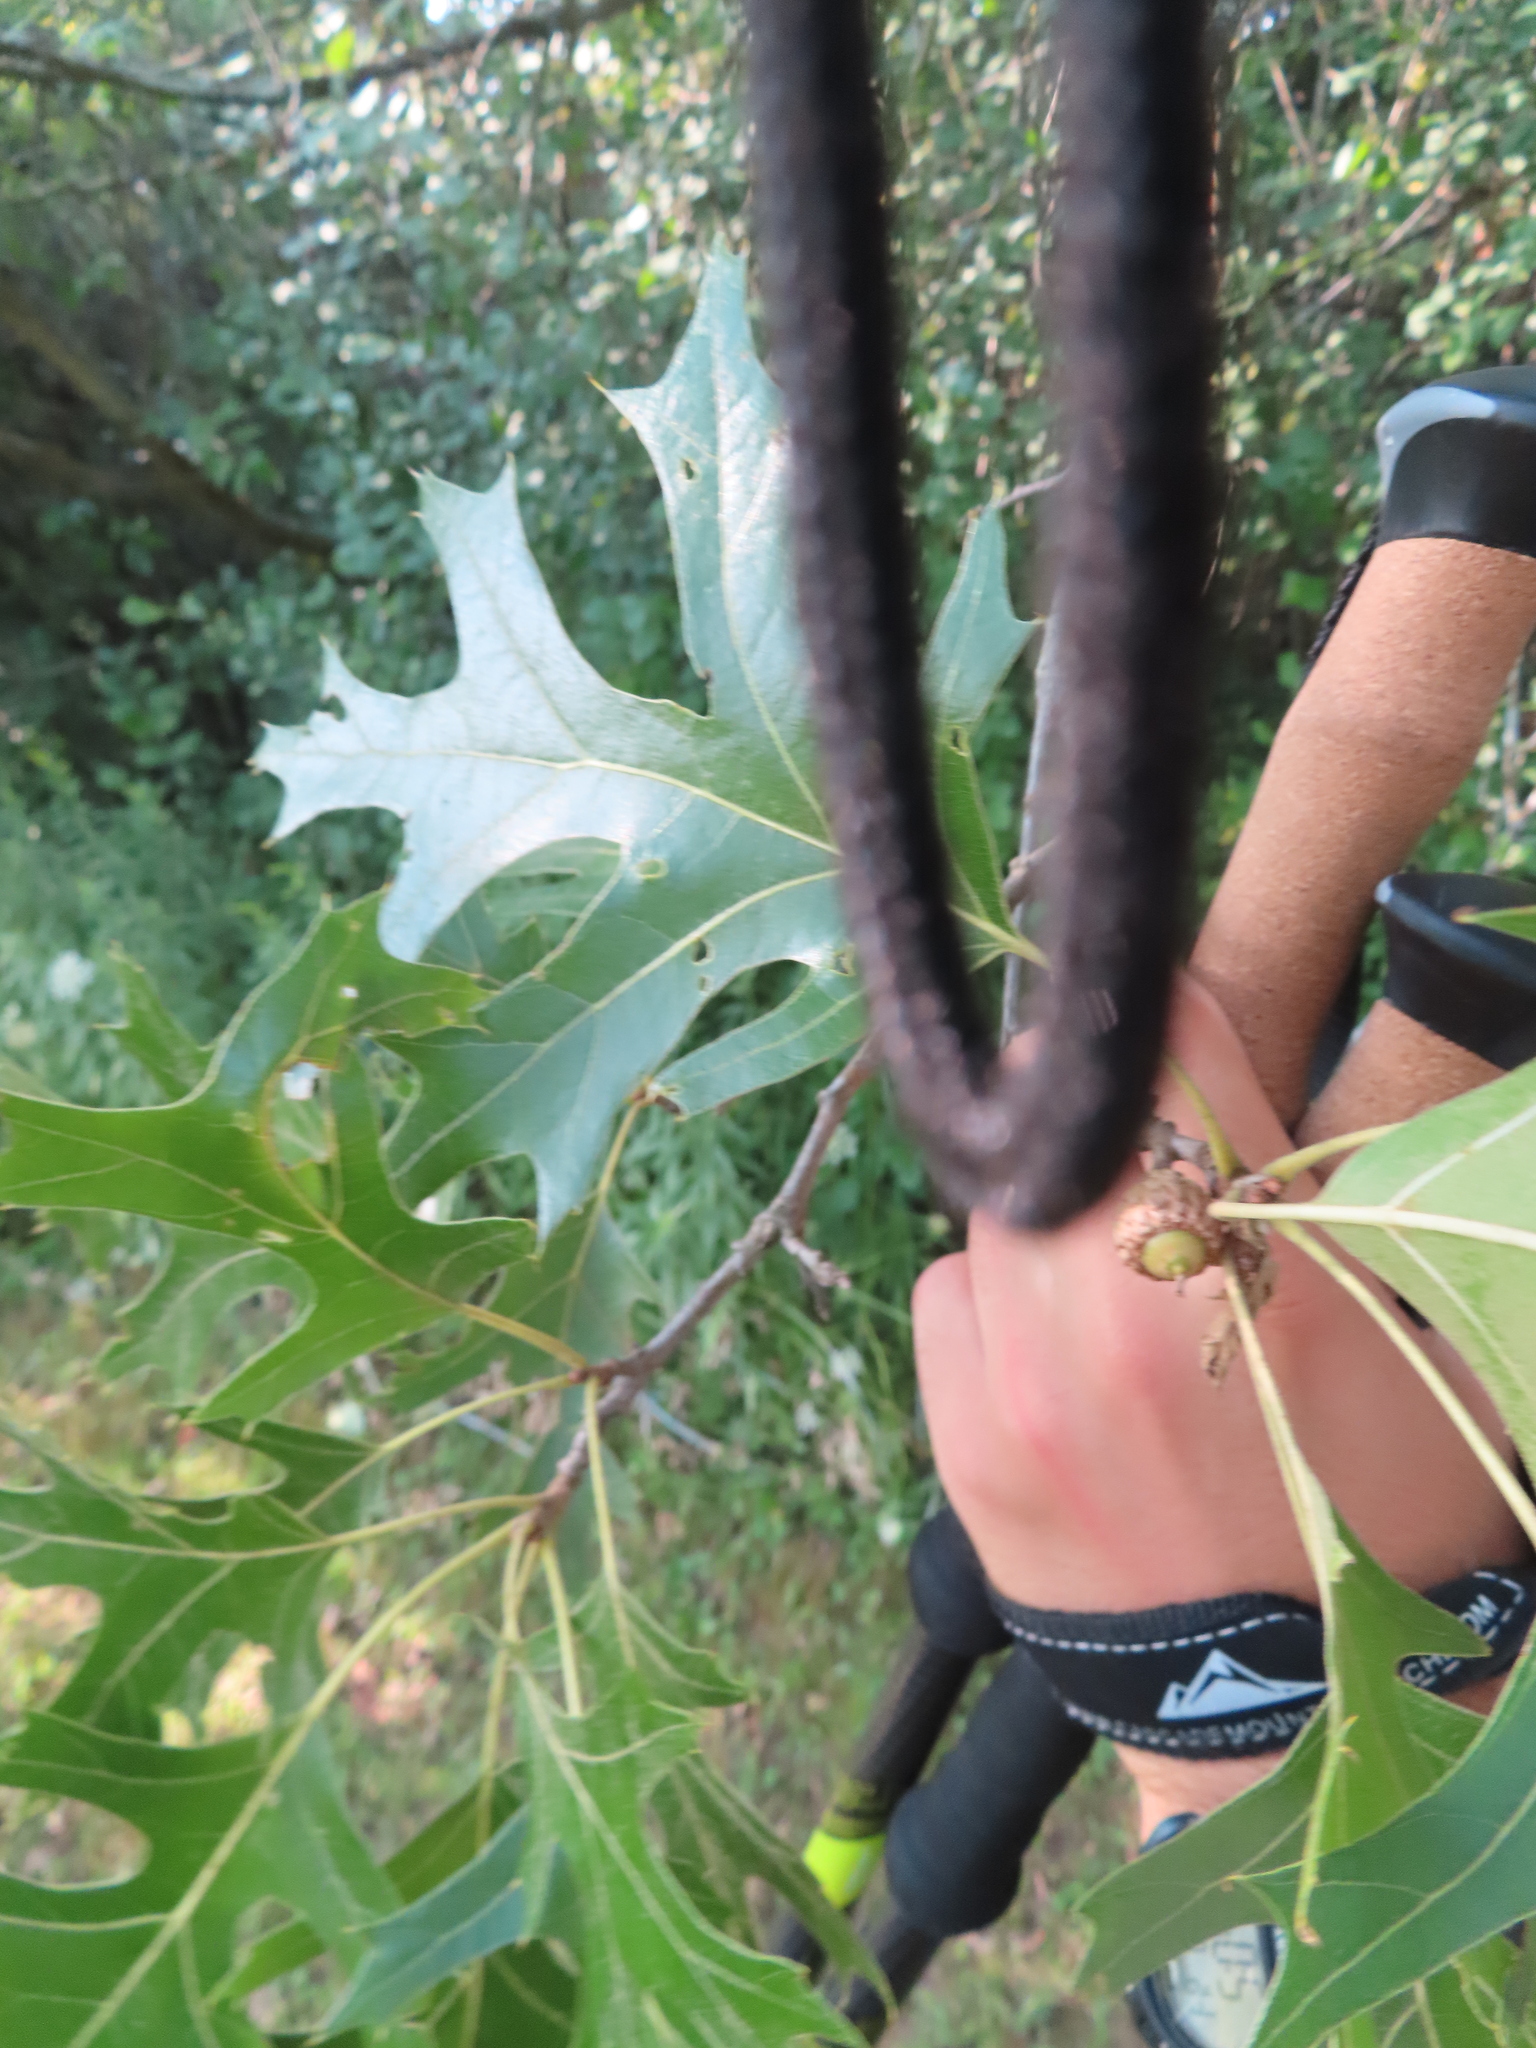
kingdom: Plantae
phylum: Tracheophyta
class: Magnoliopsida
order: Fagales
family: Fagaceae
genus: Quercus
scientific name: Quercus ellipsoidalis
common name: Hill's oak
